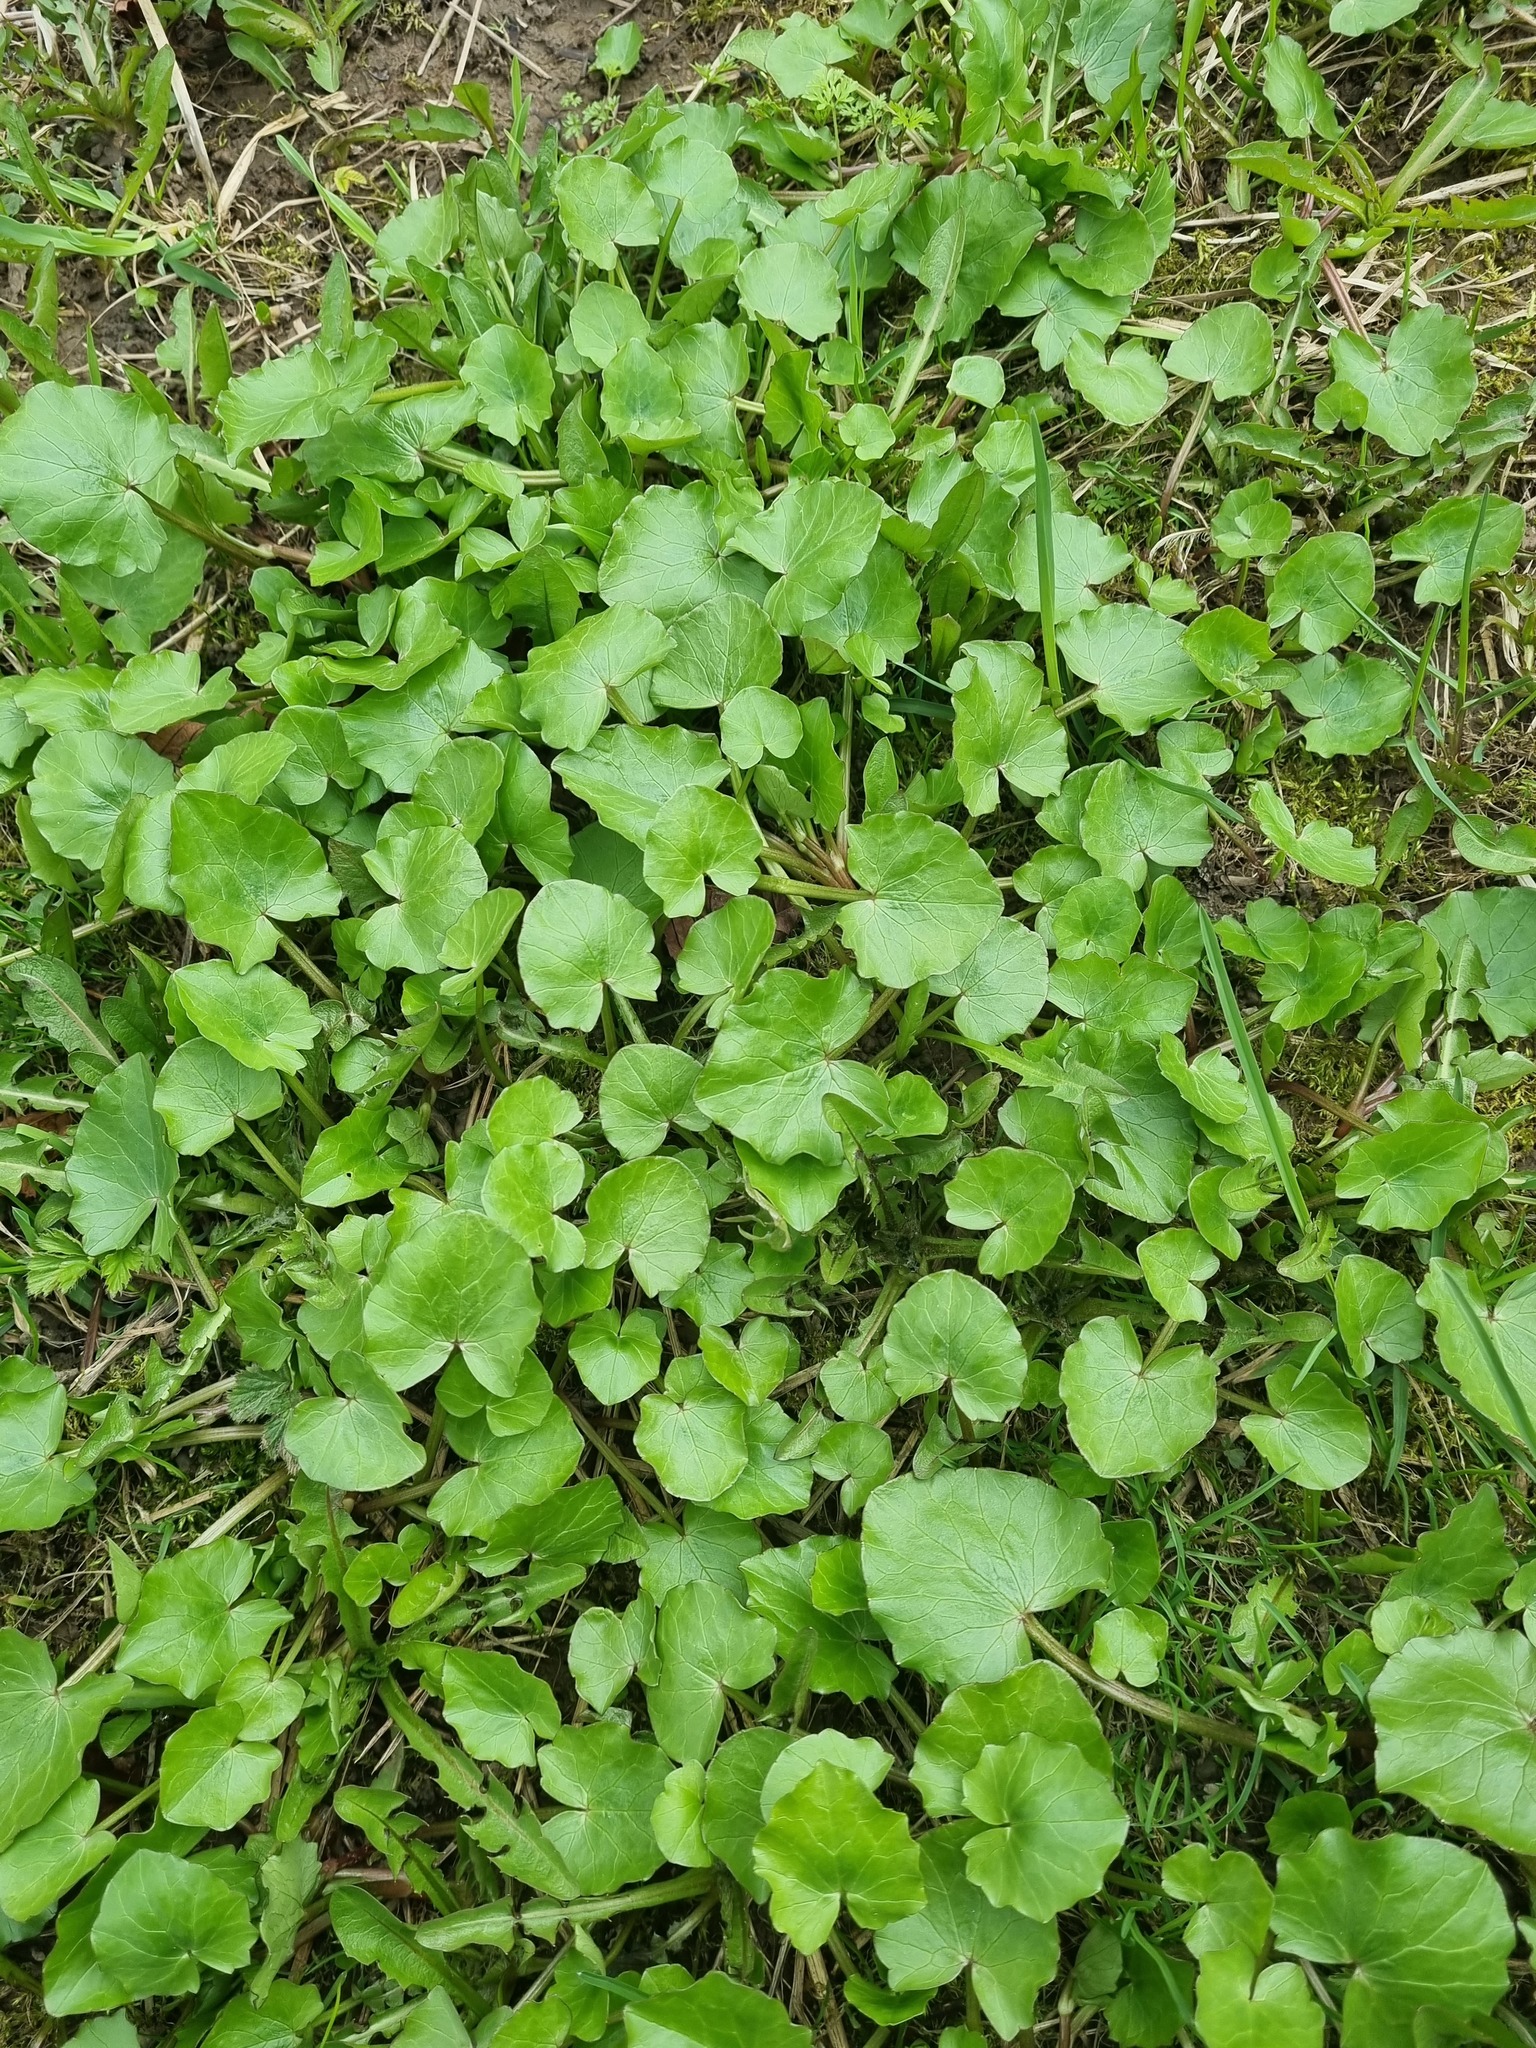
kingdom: Plantae
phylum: Tracheophyta
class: Magnoliopsida
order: Ranunculales
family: Ranunculaceae
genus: Ficaria
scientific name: Ficaria verna
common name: Lesser celandine
